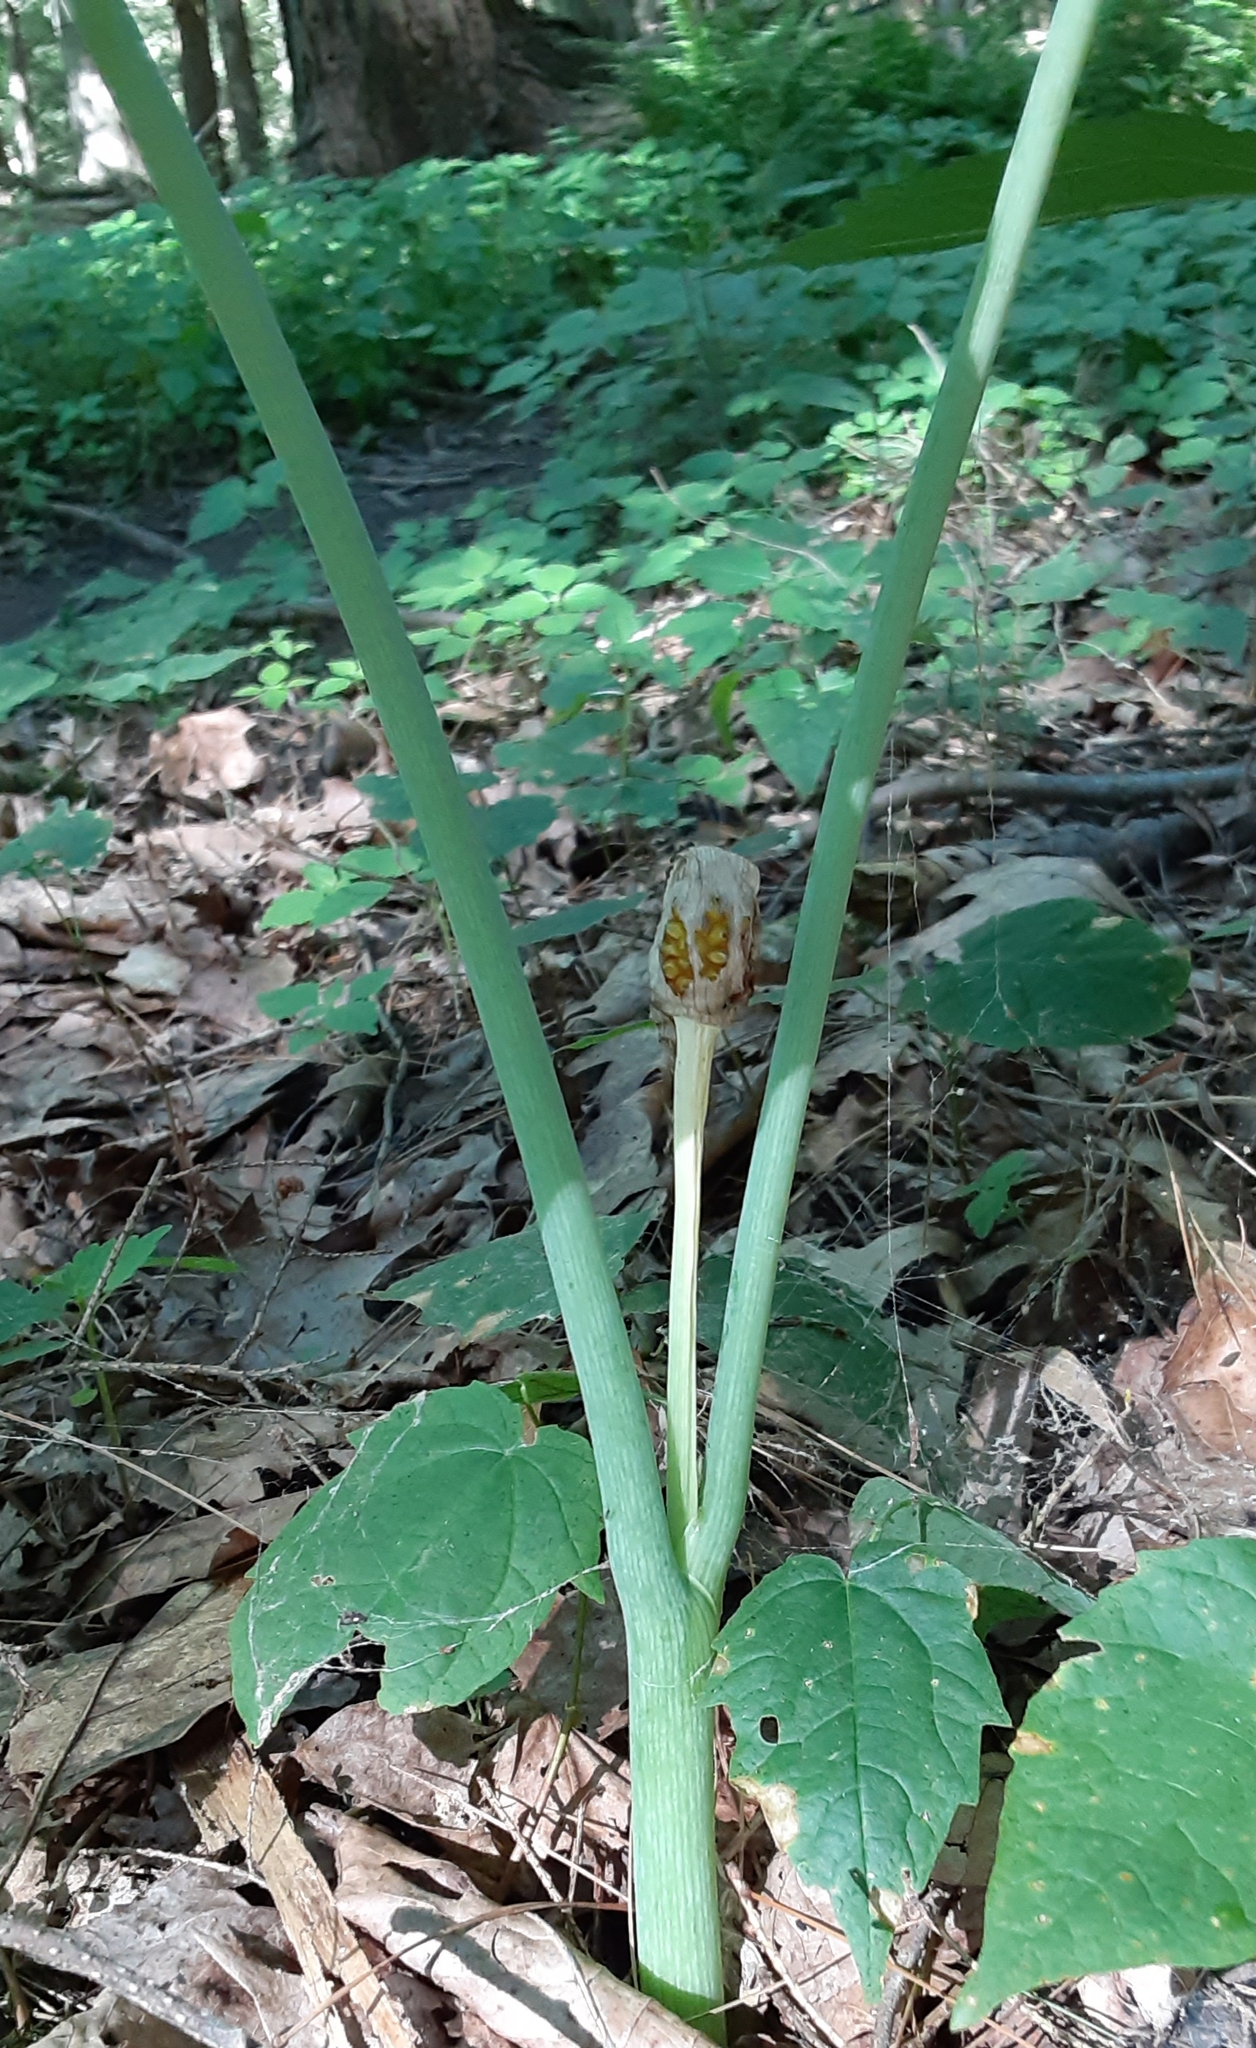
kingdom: Plantae
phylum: Tracheophyta
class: Liliopsida
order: Alismatales
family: Araceae
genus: Arisaema
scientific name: Arisaema triphyllum
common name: Jack-in-the-pulpit
